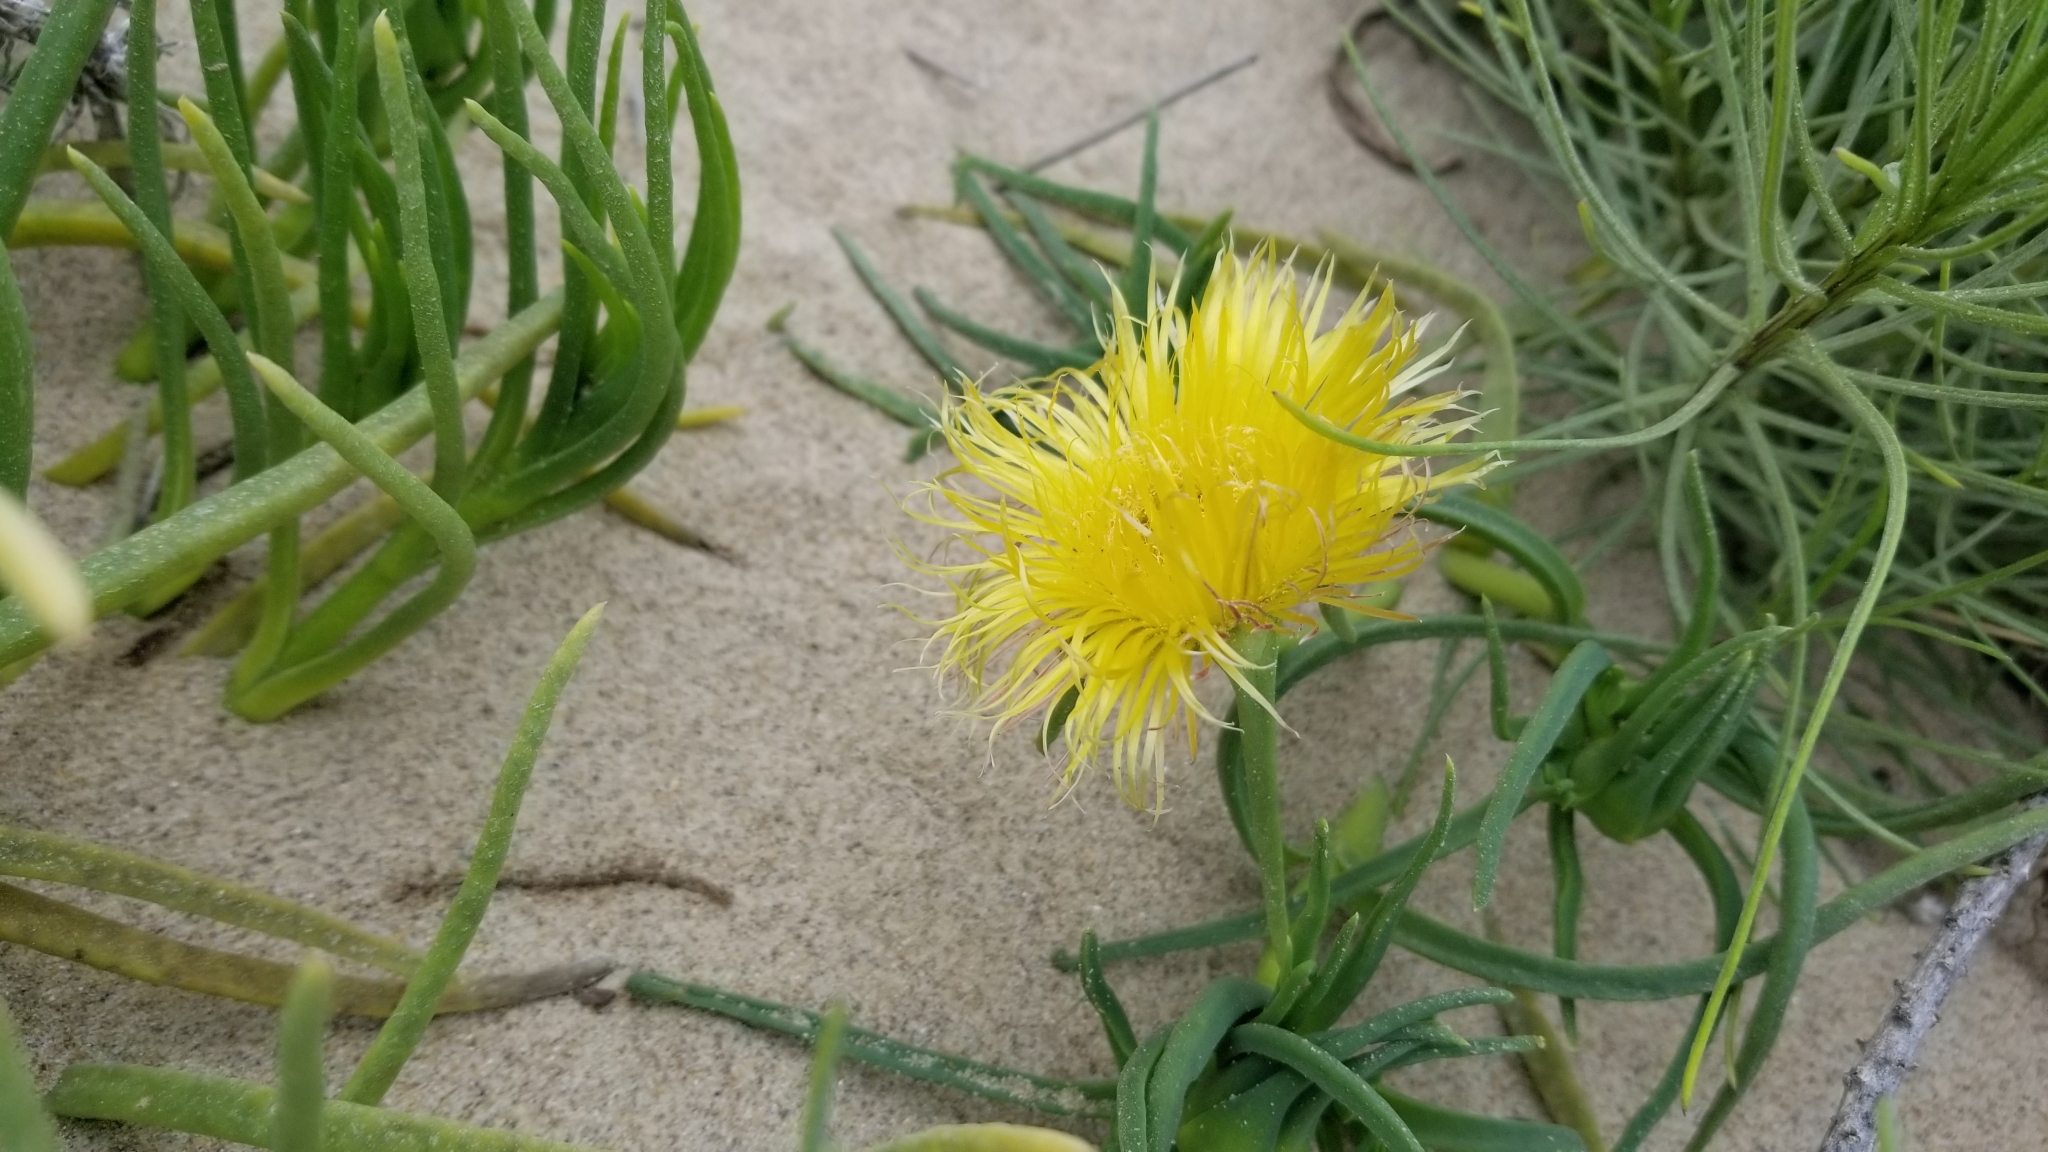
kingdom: Plantae
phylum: Tracheophyta
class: Magnoliopsida
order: Caryophyllales
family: Aizoaceae
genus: Conicosia
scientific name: Conicosia pugioniformis
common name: Narrow-leaved iceplant
